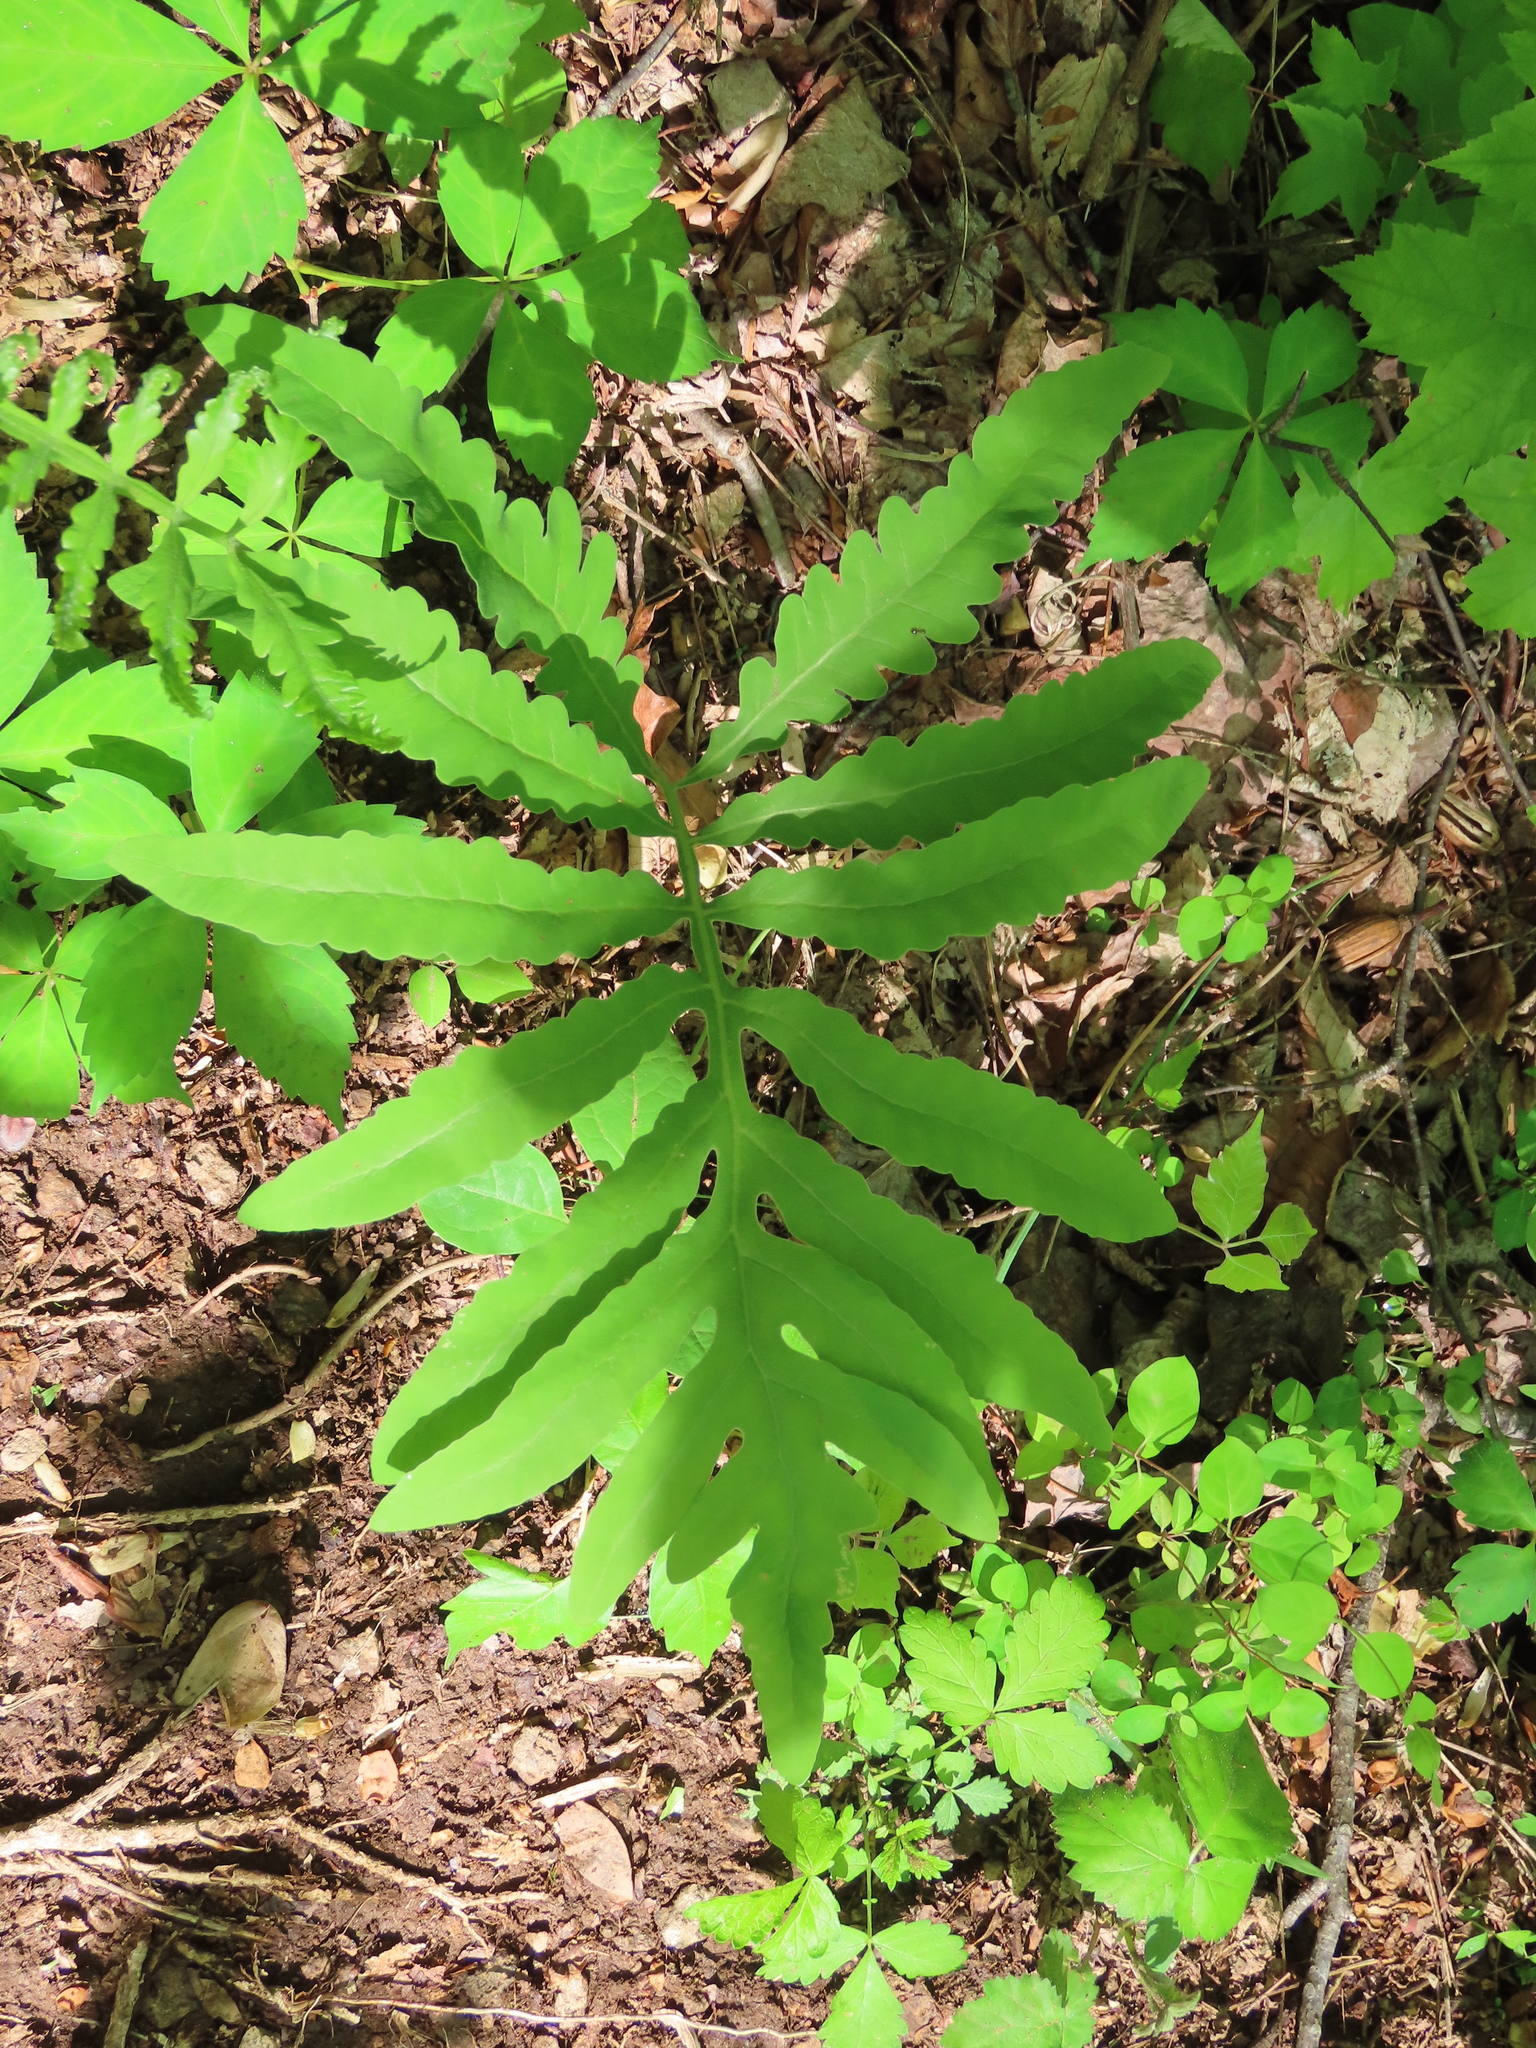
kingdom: Plantae
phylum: Tracheophyta
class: Polypodiopsida
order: Polypodiales
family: Onocleaceae
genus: Onoclea
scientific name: Onoclea sensibilis
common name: Sensitive fern
